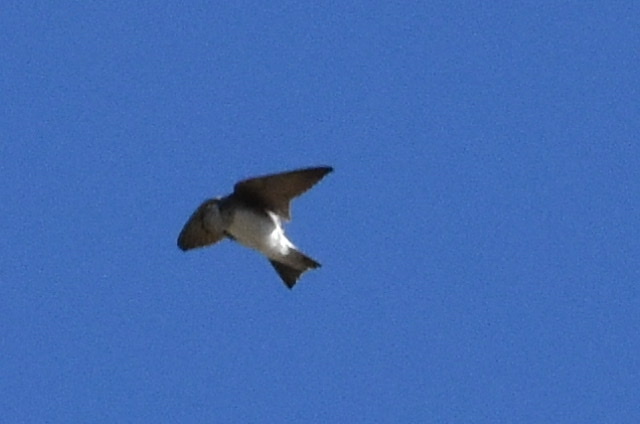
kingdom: Animalia
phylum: Chordata
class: Aves
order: Passeriformes
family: Hirundinidae
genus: Riparia
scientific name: Riparia diluta
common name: Pale martin
